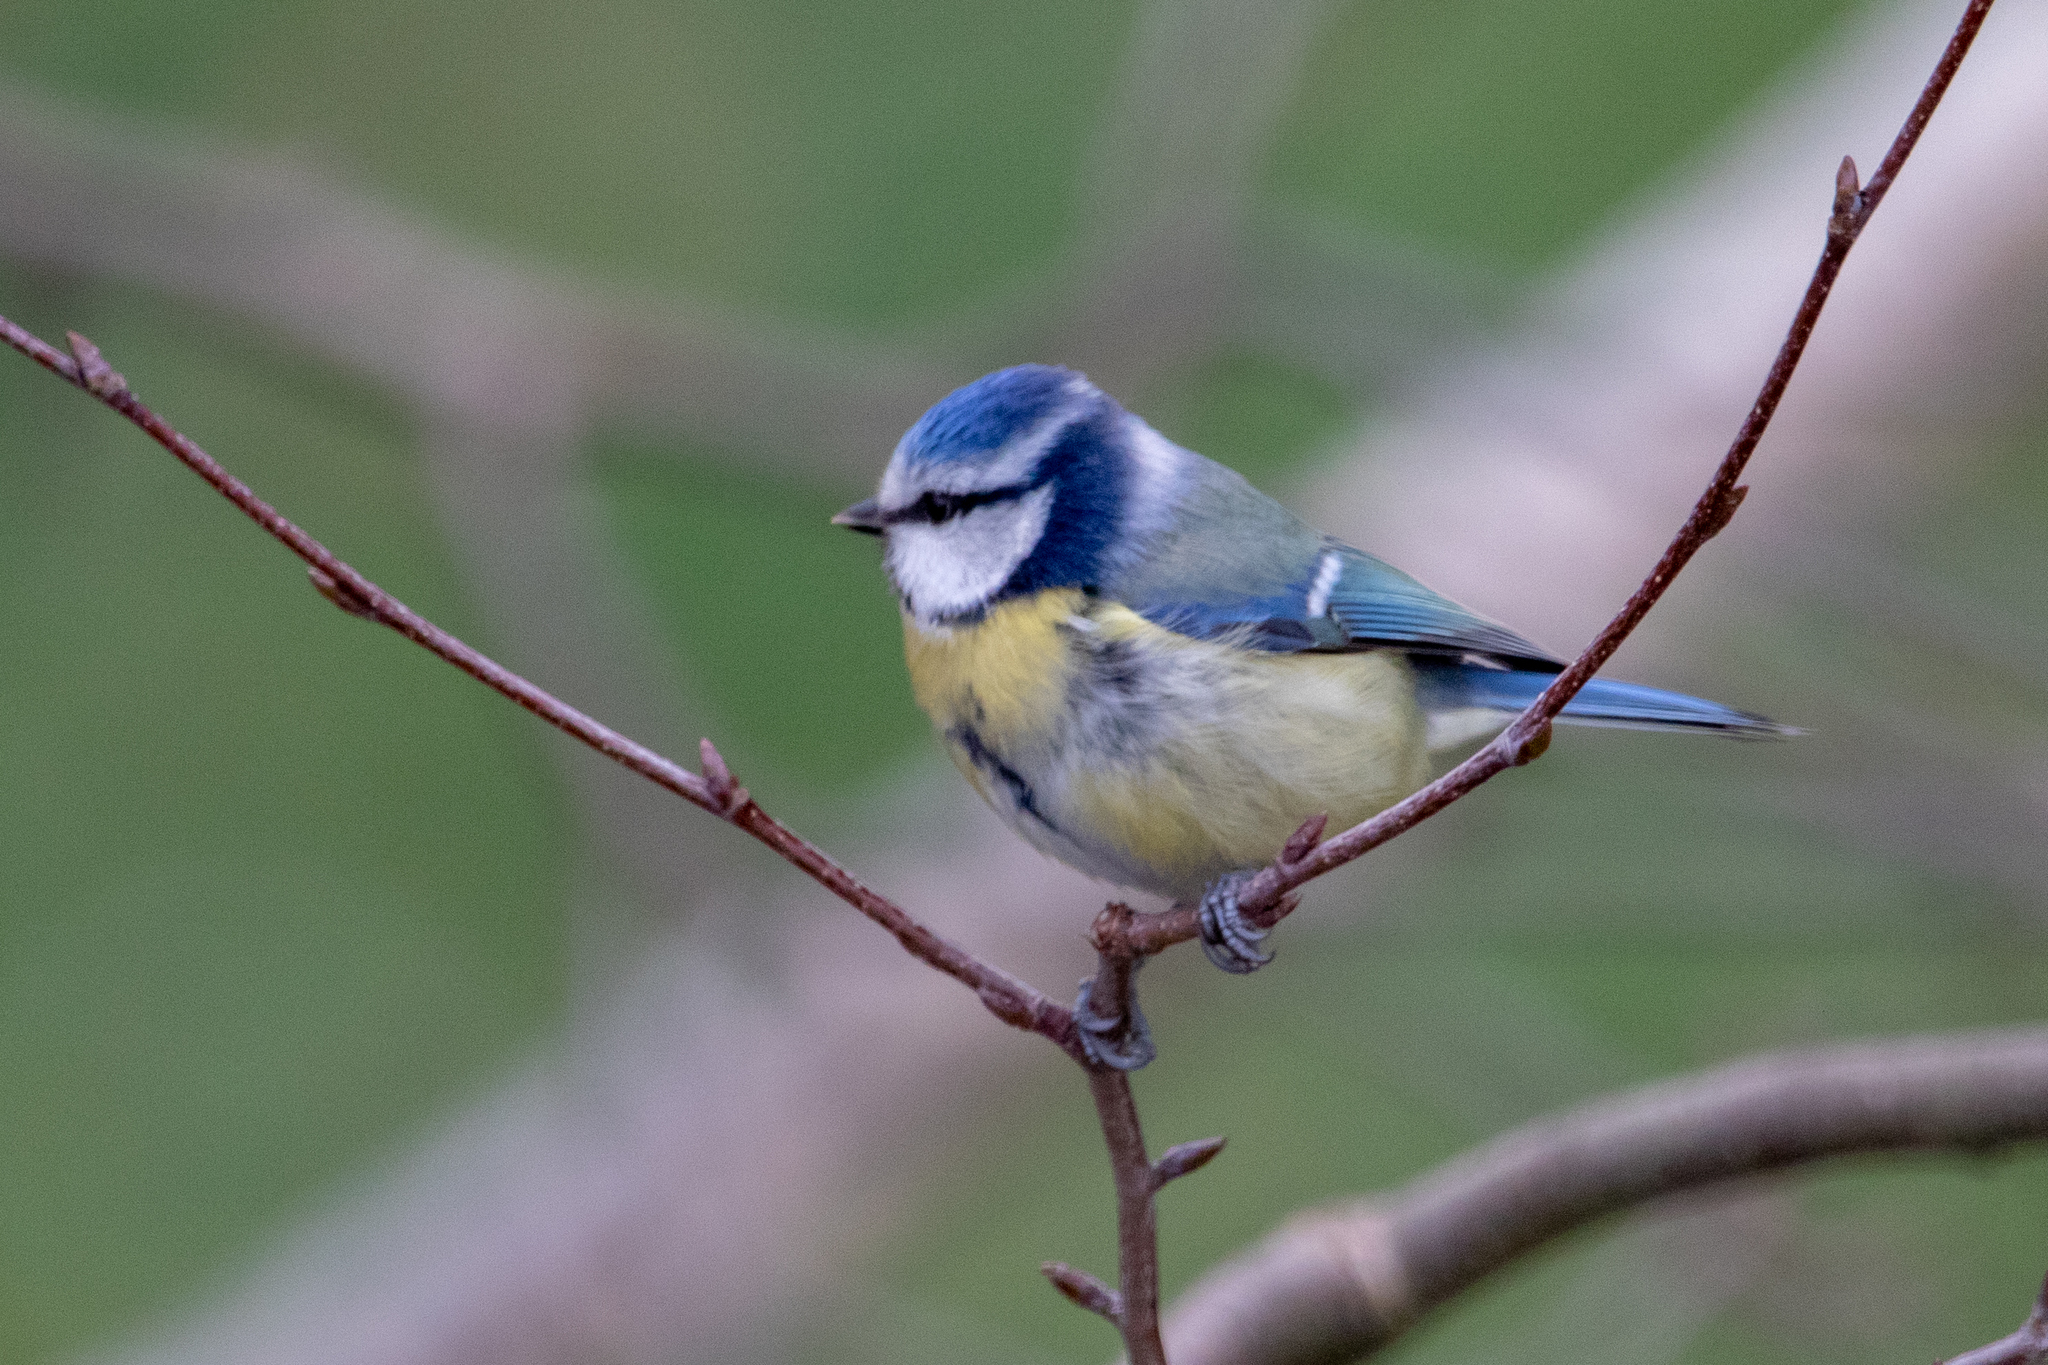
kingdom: Animalia
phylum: Chordata
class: Aves
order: Passeriformes
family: Paridae
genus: Cyanistes
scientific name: Cyanistes caeruleus
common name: Eurasian blue tit
